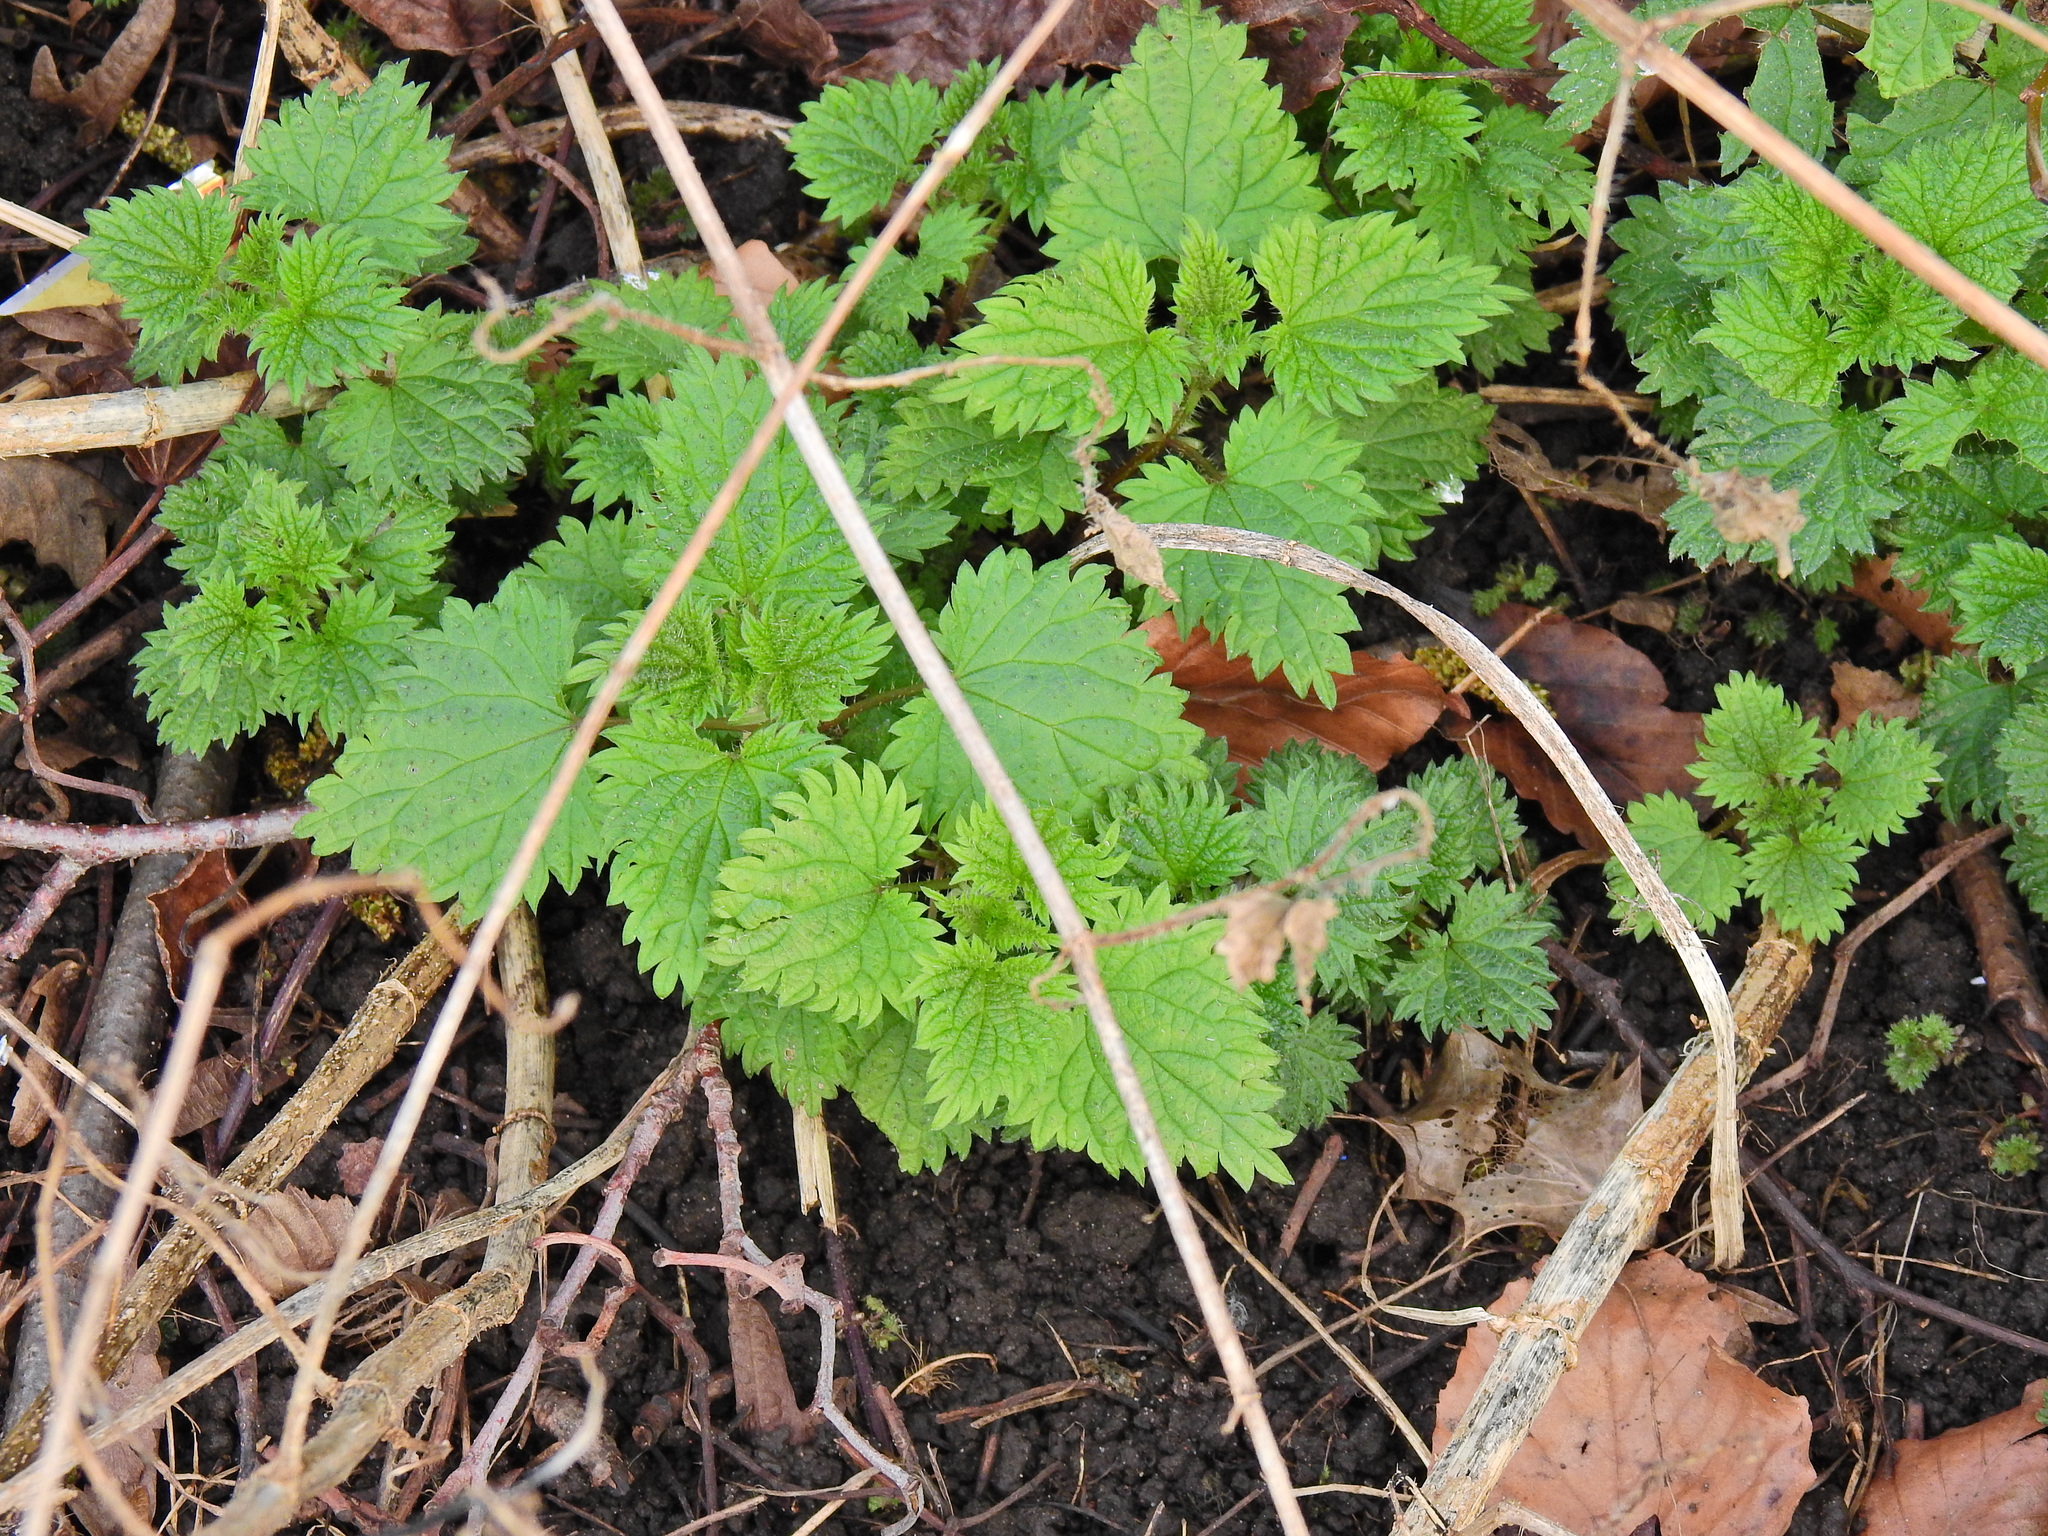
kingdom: Plantae
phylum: Tracheophyta
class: Magnoliopsida
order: Rosales
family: Urticaceae
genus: Urtica
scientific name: Urtica dioica
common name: Common nettle
